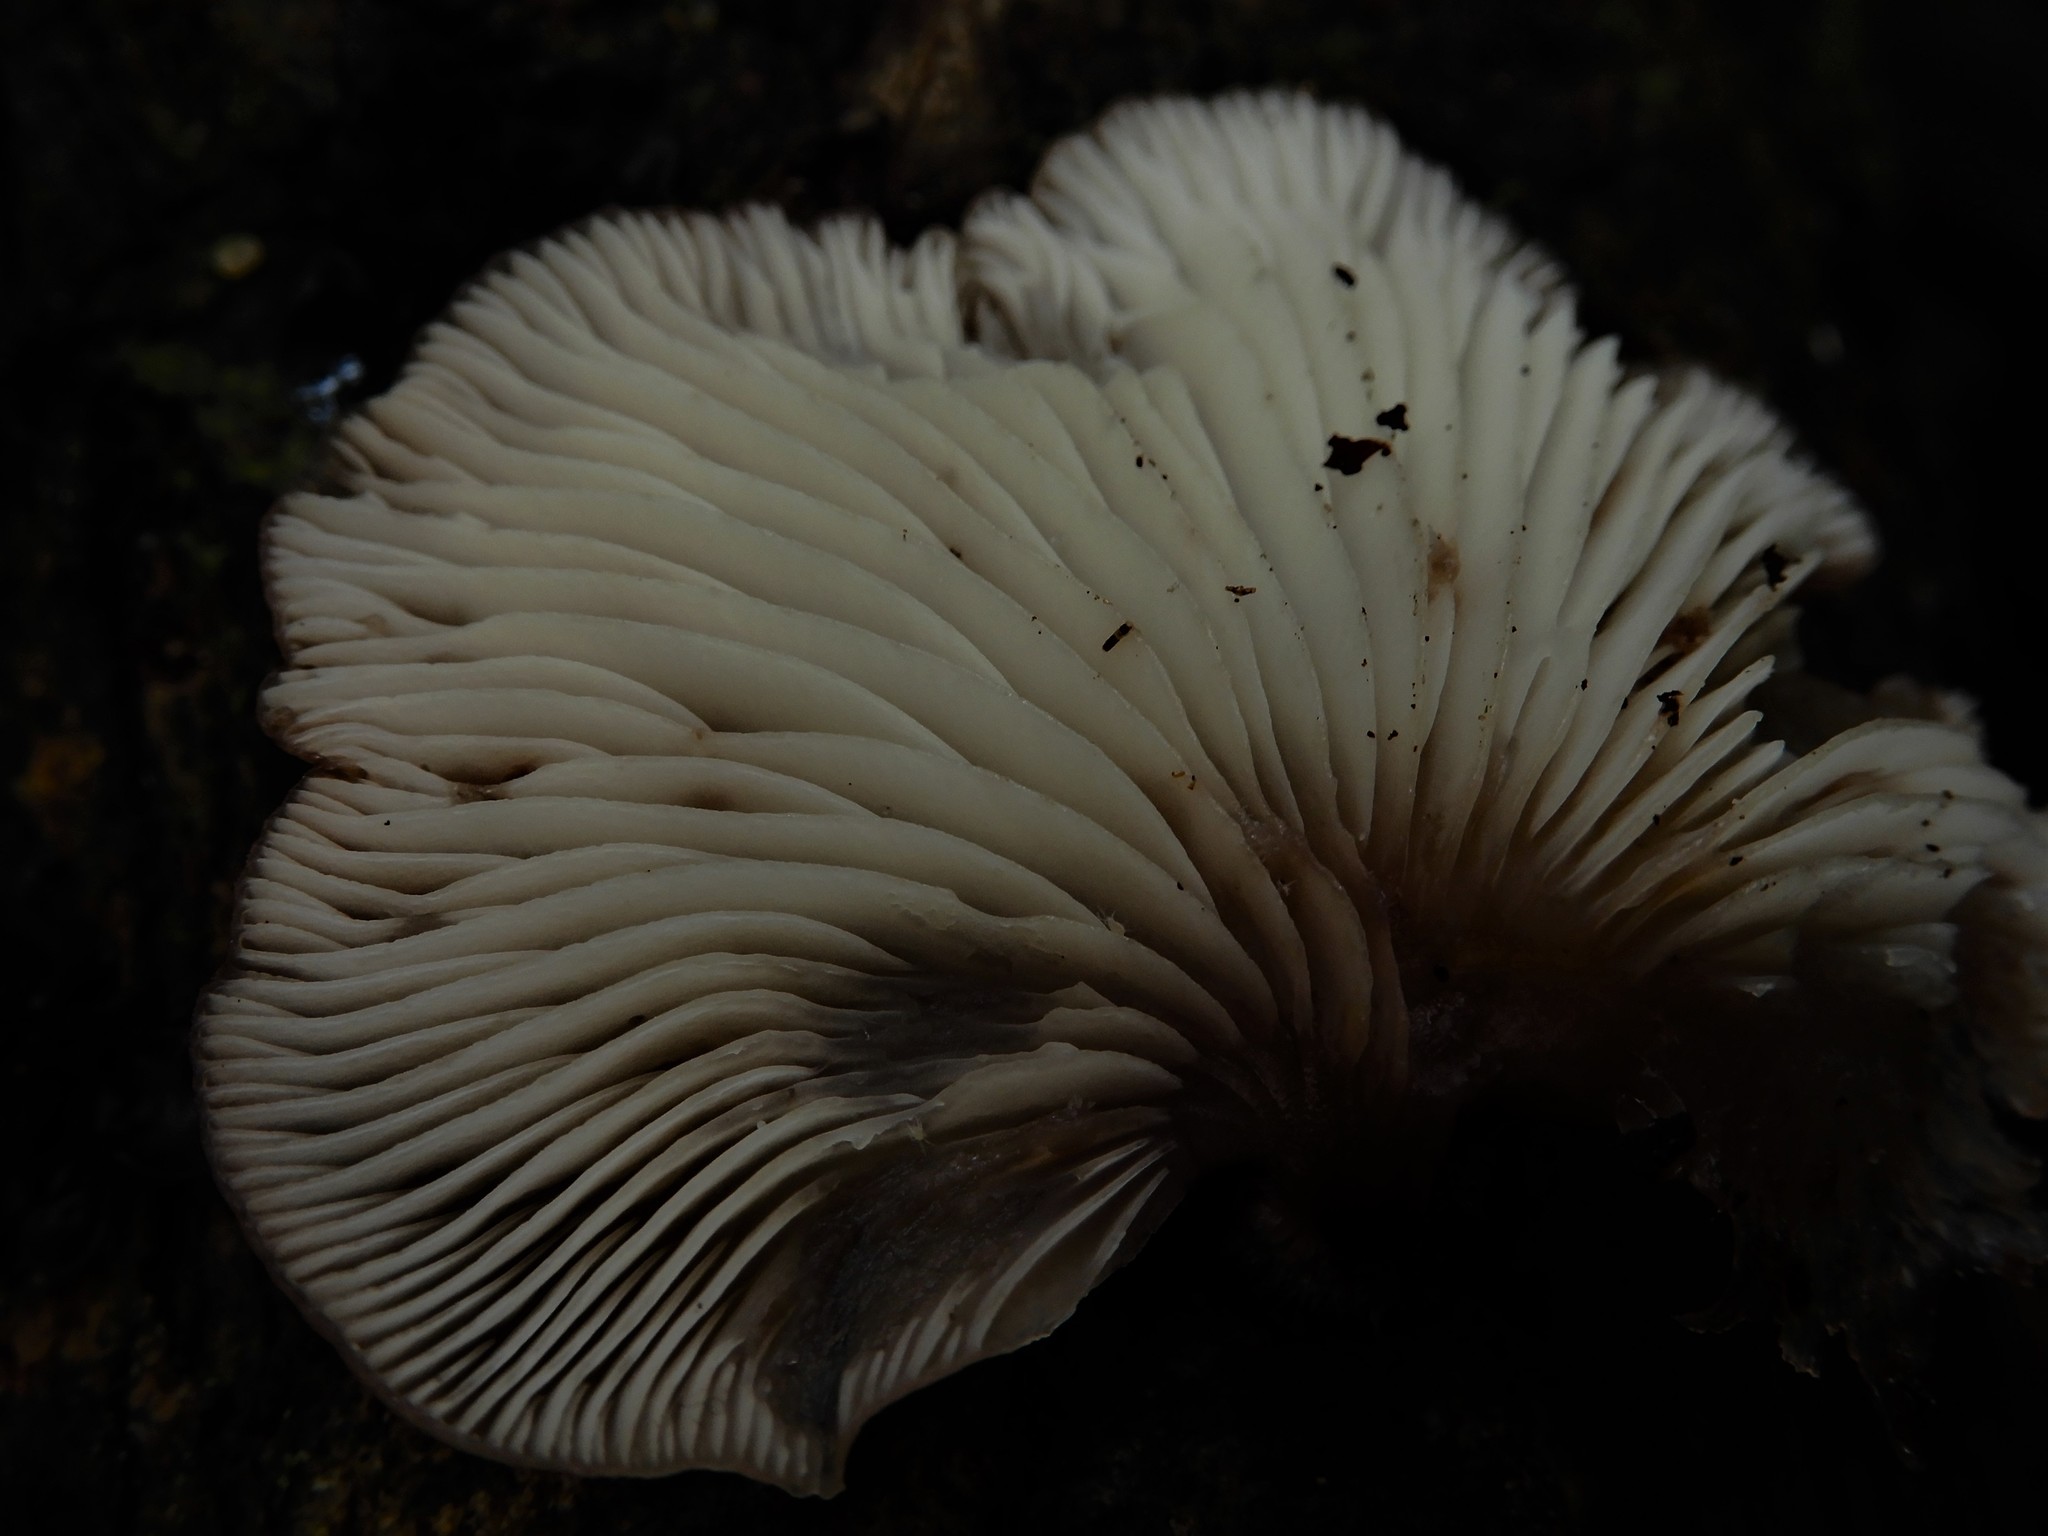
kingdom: Fungi
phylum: Basidiomycota
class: Agaricomycetes
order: Agaricales
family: Mycenaceae
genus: Panellus
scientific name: Panellus longinquus
